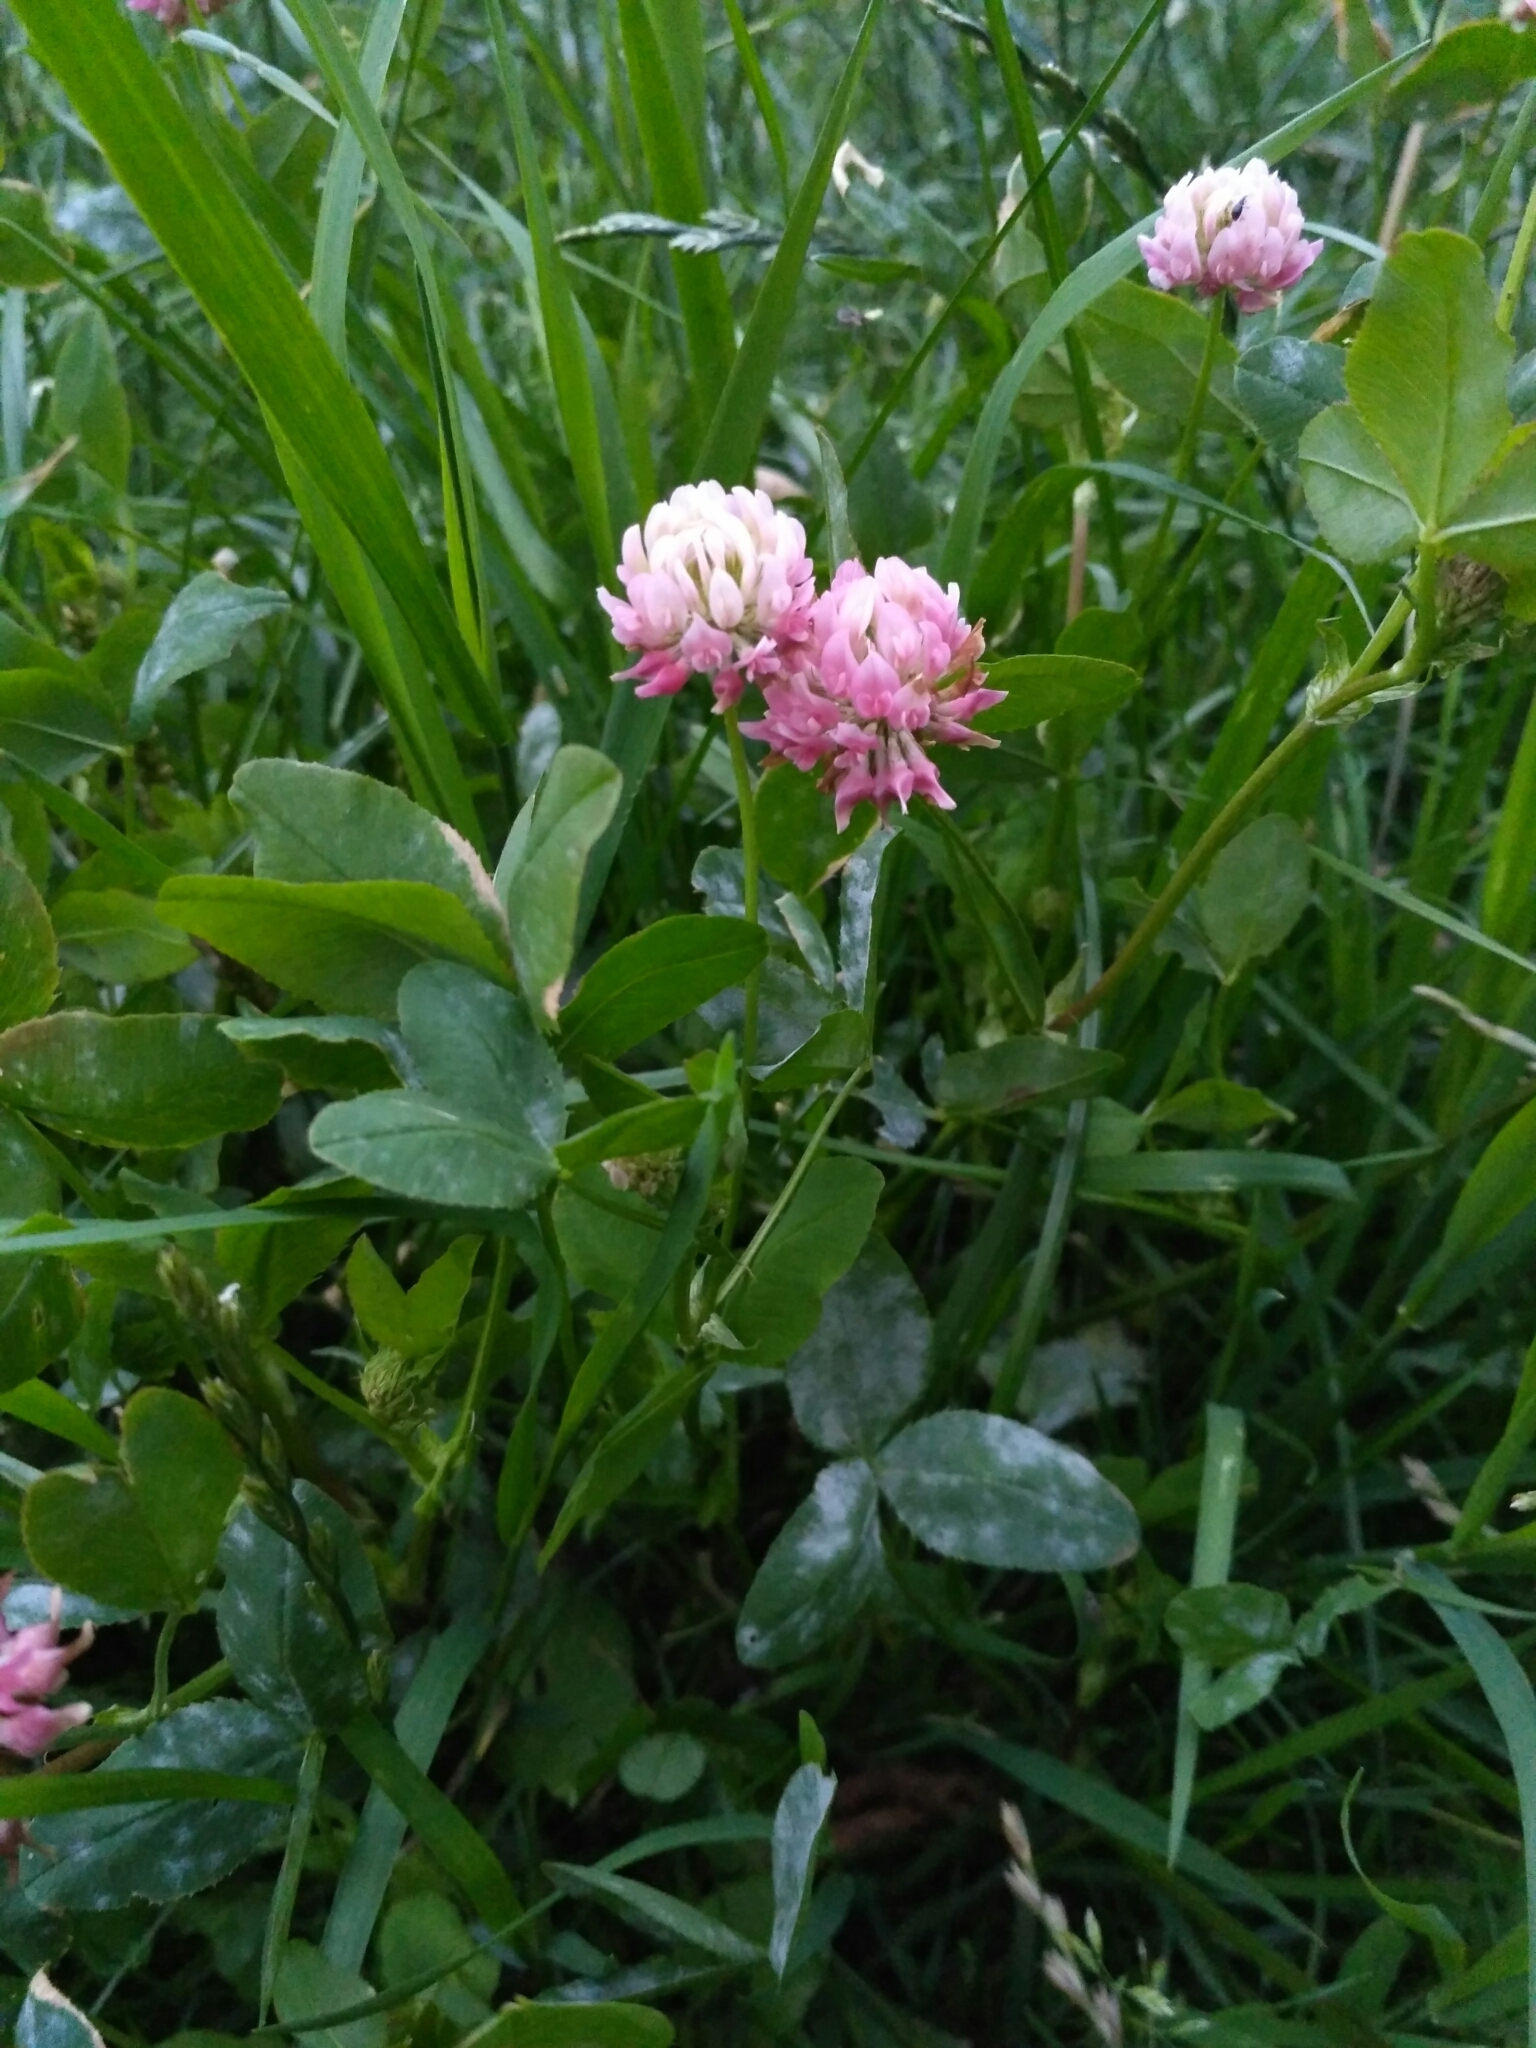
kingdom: Plantae
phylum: Tracheophyta
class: Magnoliopsida
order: Fabales
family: Fabaceae
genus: Trifolium
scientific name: Trifolium hybridum
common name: Alsike clover
